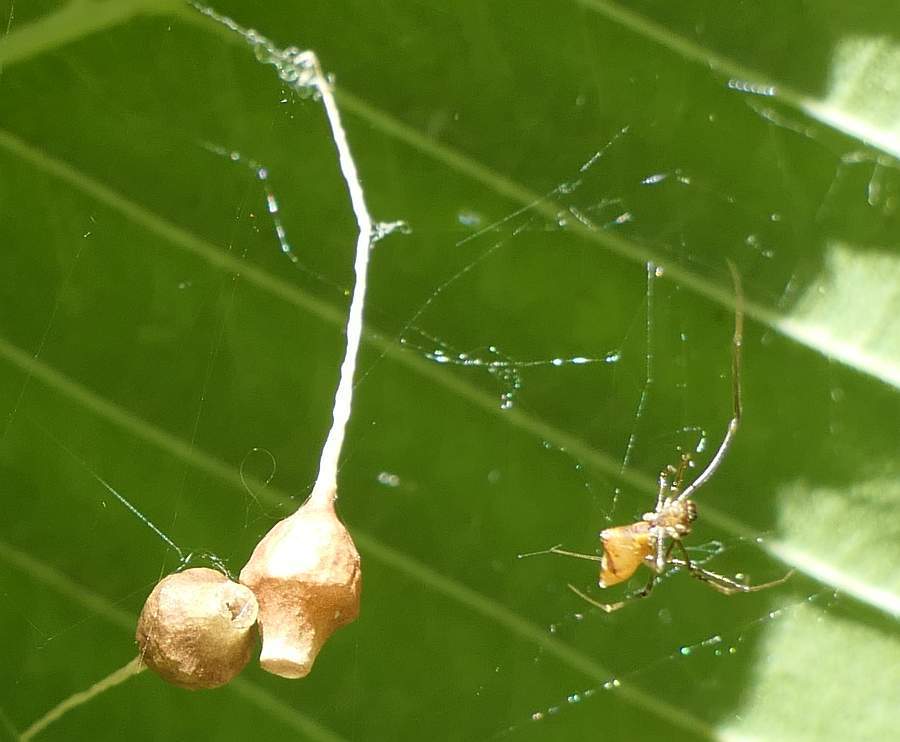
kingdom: Animalia
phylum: Arthropoda
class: Arachnida
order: Araneae
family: Theridiidae
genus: Neospintharus
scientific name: Neospintharus trigonum
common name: Horned parasitic cobweaver
